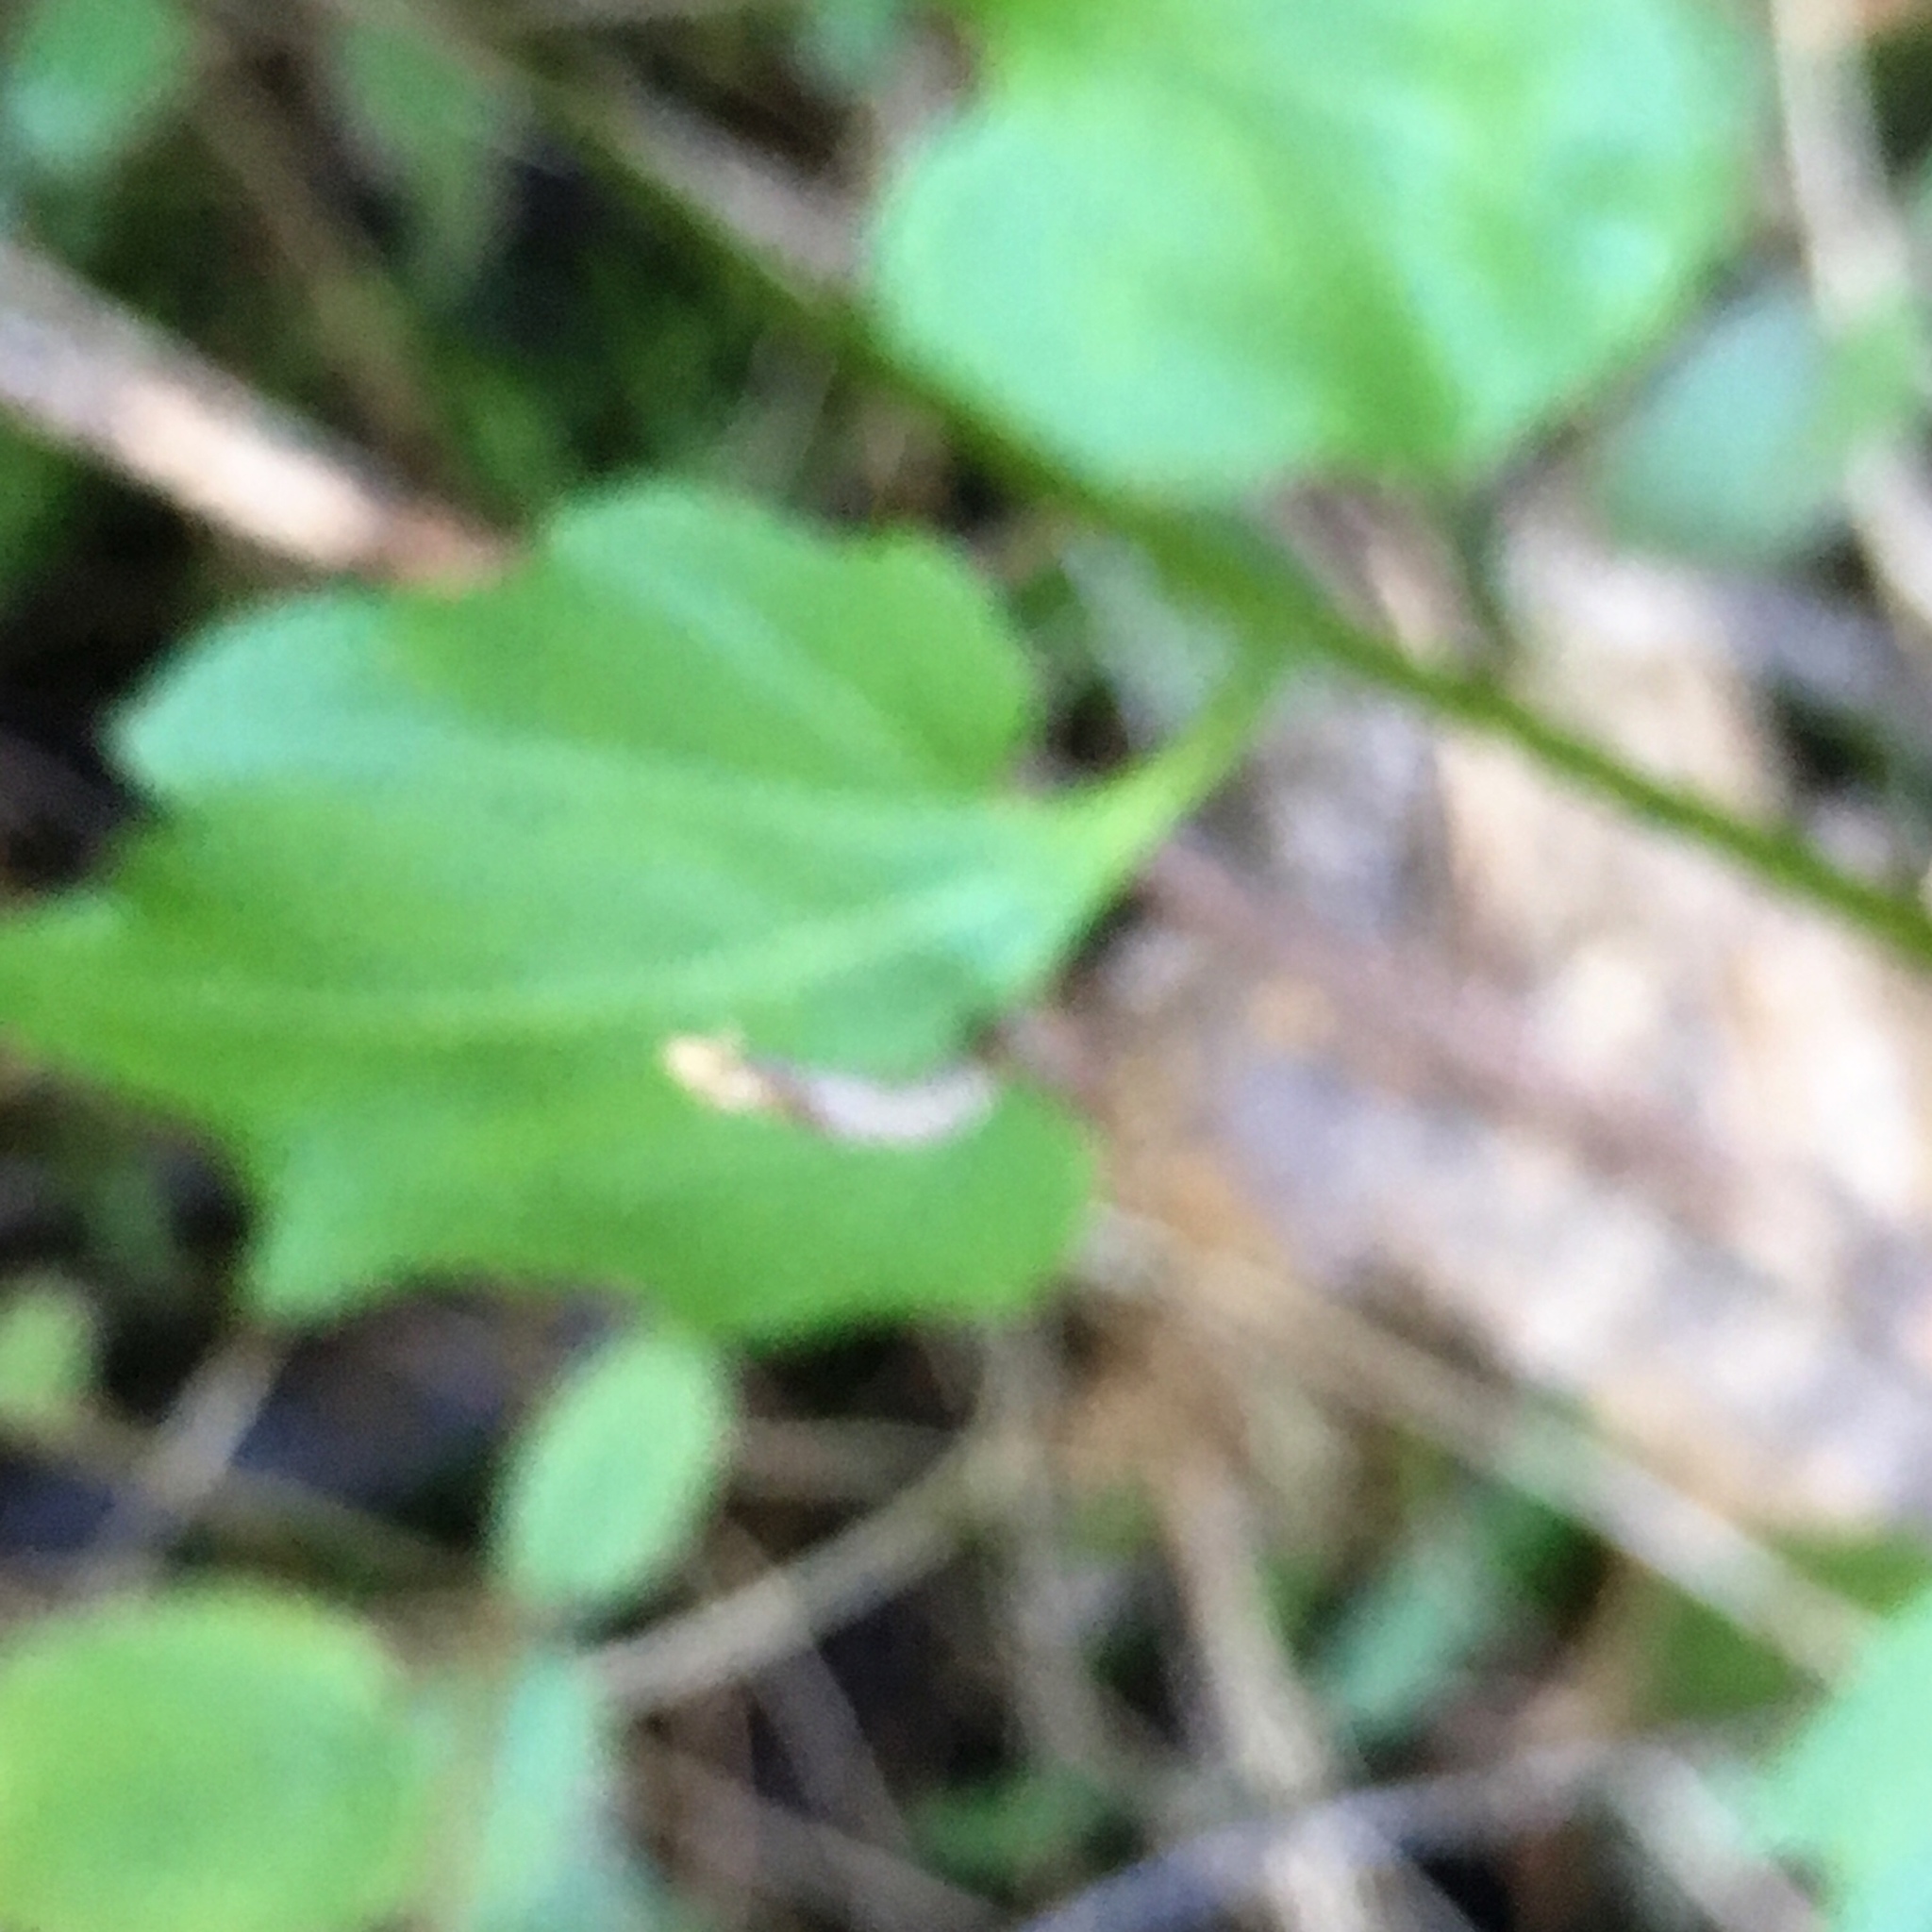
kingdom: Plantae
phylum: Tracheophyta
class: Magnoliopsida
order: Brassicales
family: Brassicaceae
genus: Cardamine
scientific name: Cardamine californica
